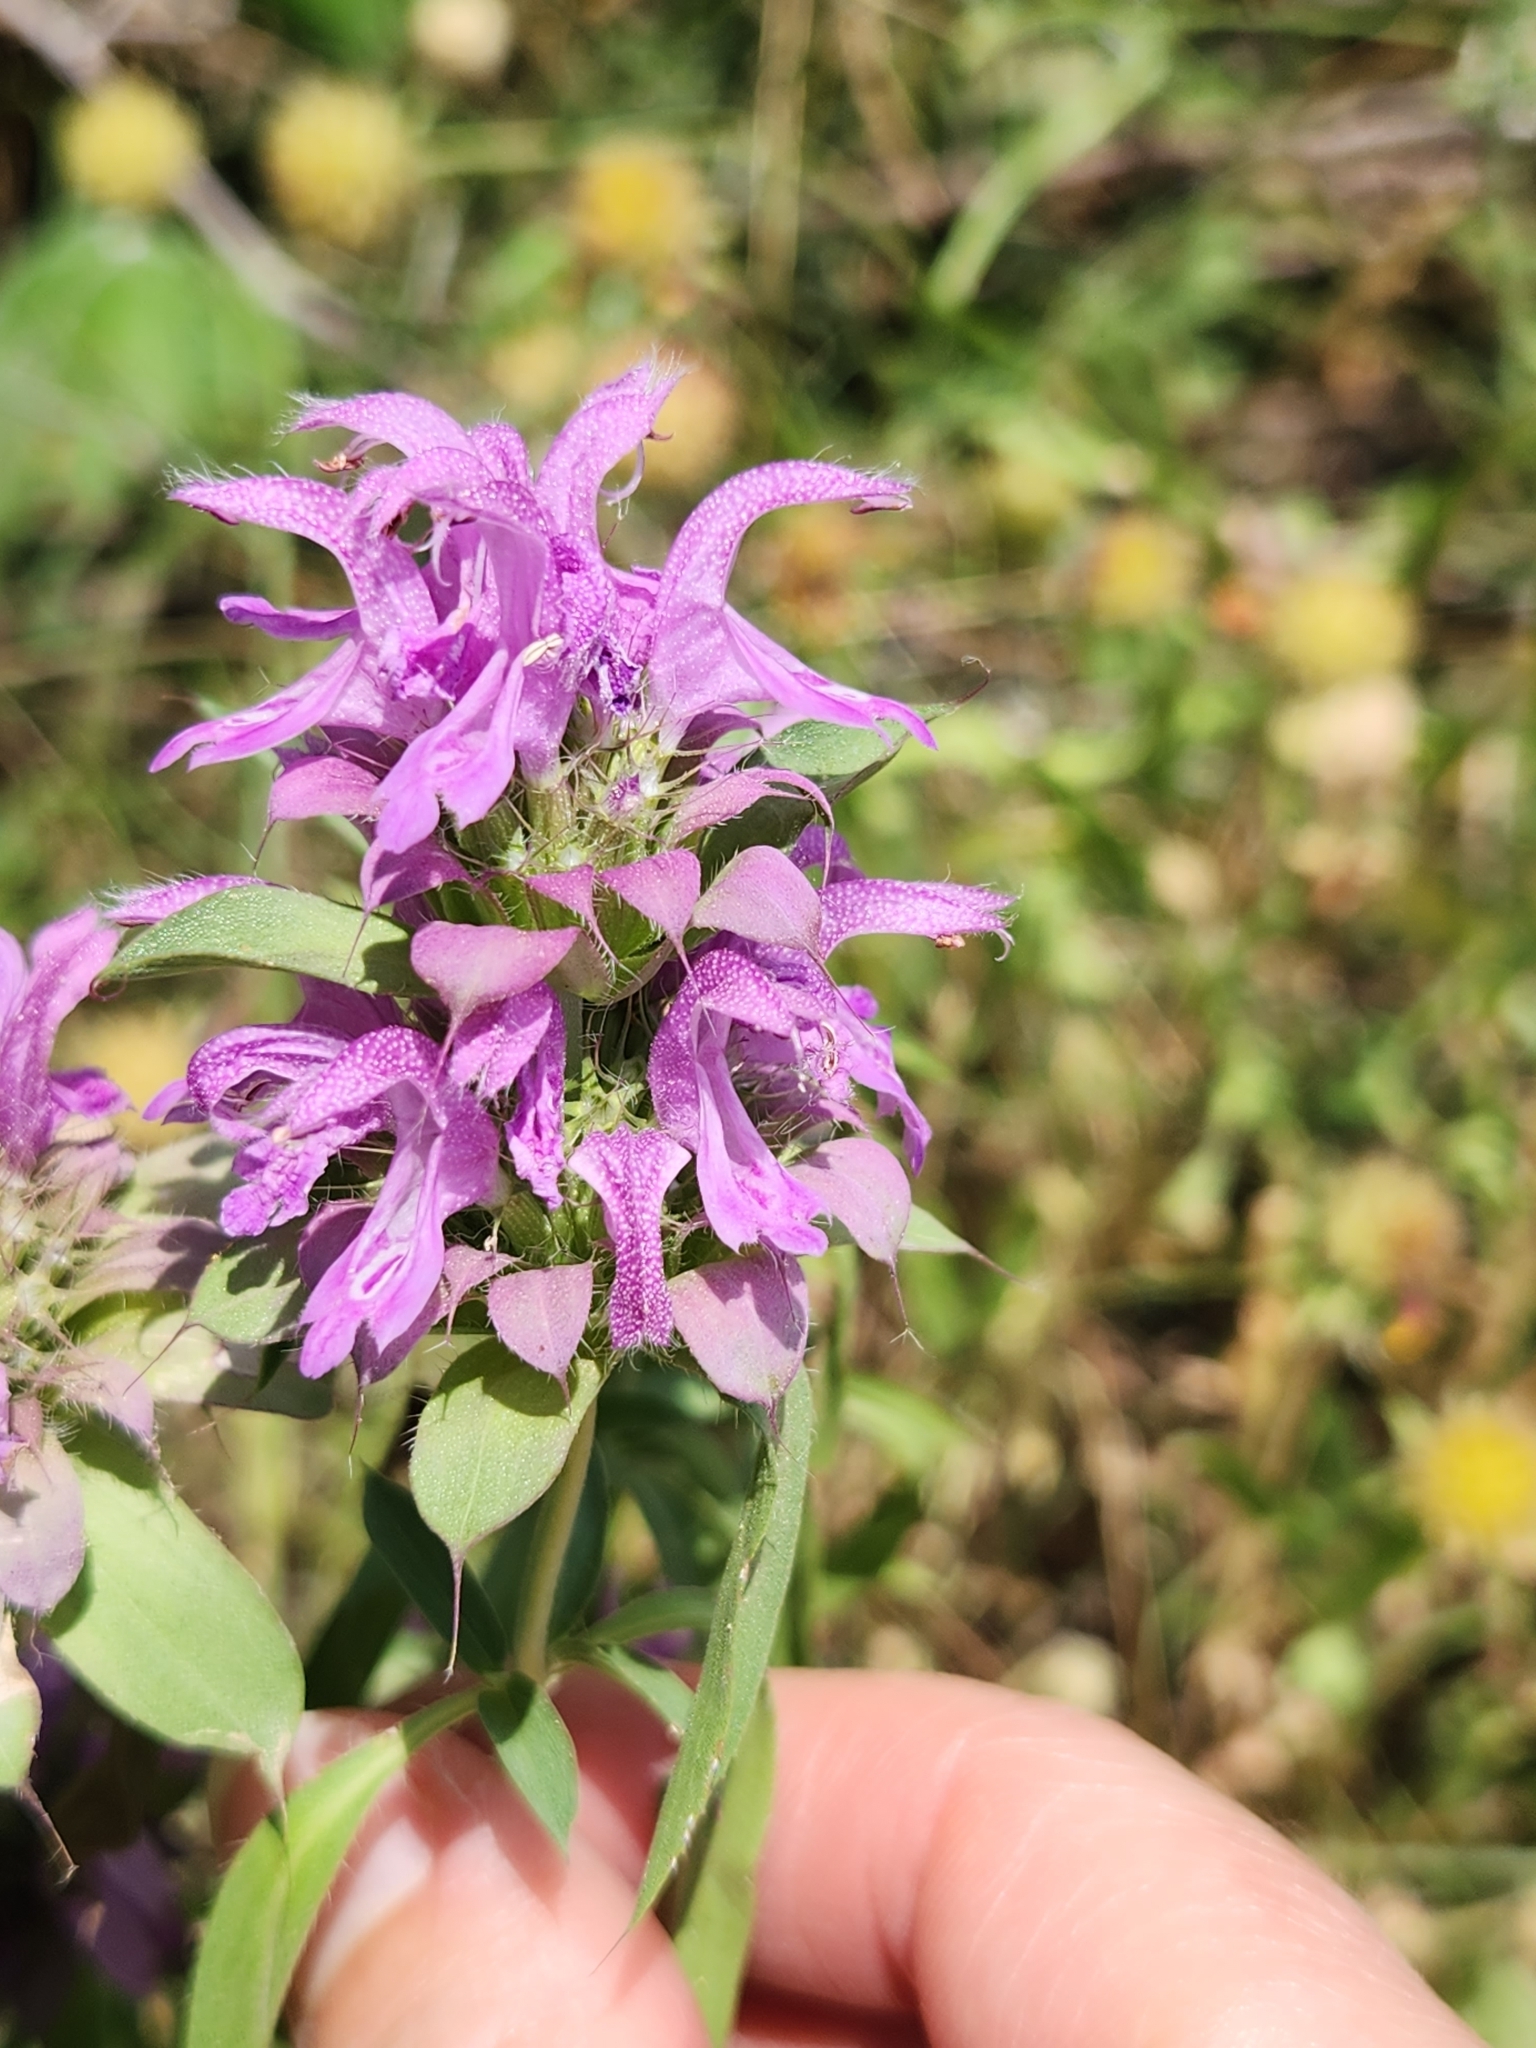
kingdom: Plantae
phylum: Tracheophyta
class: Magnoliopsida
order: Lamiales
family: Lamiaceae
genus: Monarda
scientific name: Monarda citriodora
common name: Lemon beebalm
